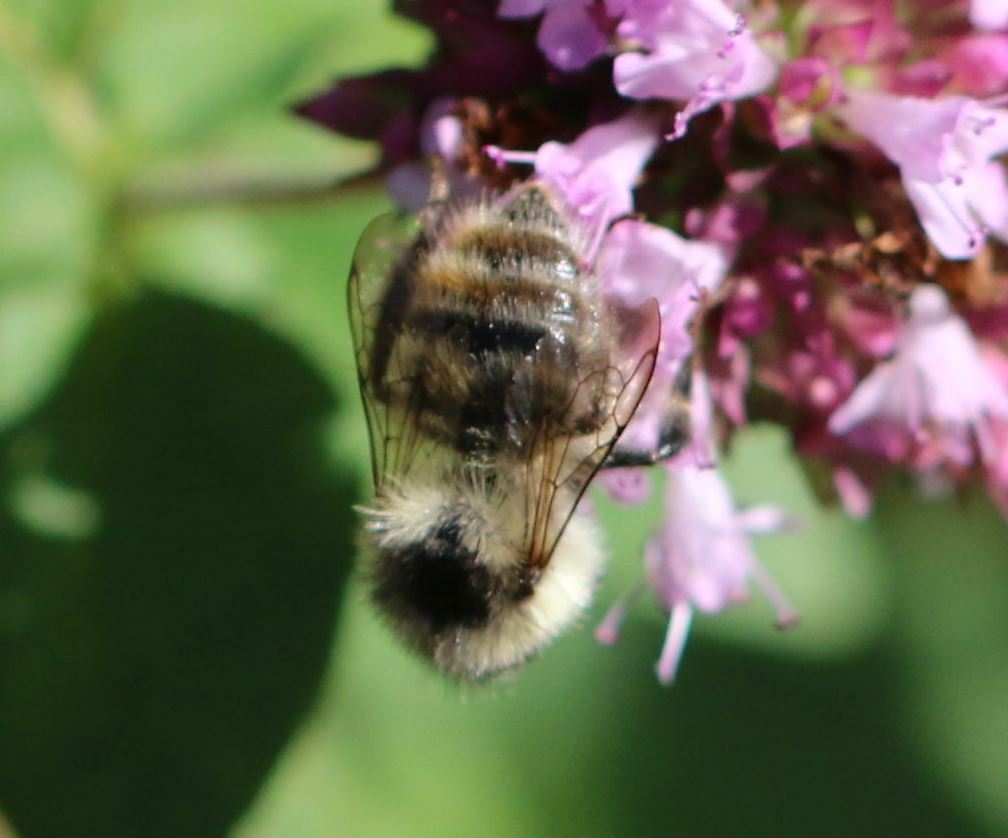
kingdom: Animalia
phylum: Arthropoda
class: Insecta
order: Hymenoptera
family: Apidae
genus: Bombus
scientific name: Bombus sylvarum
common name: Shrill carder bee
